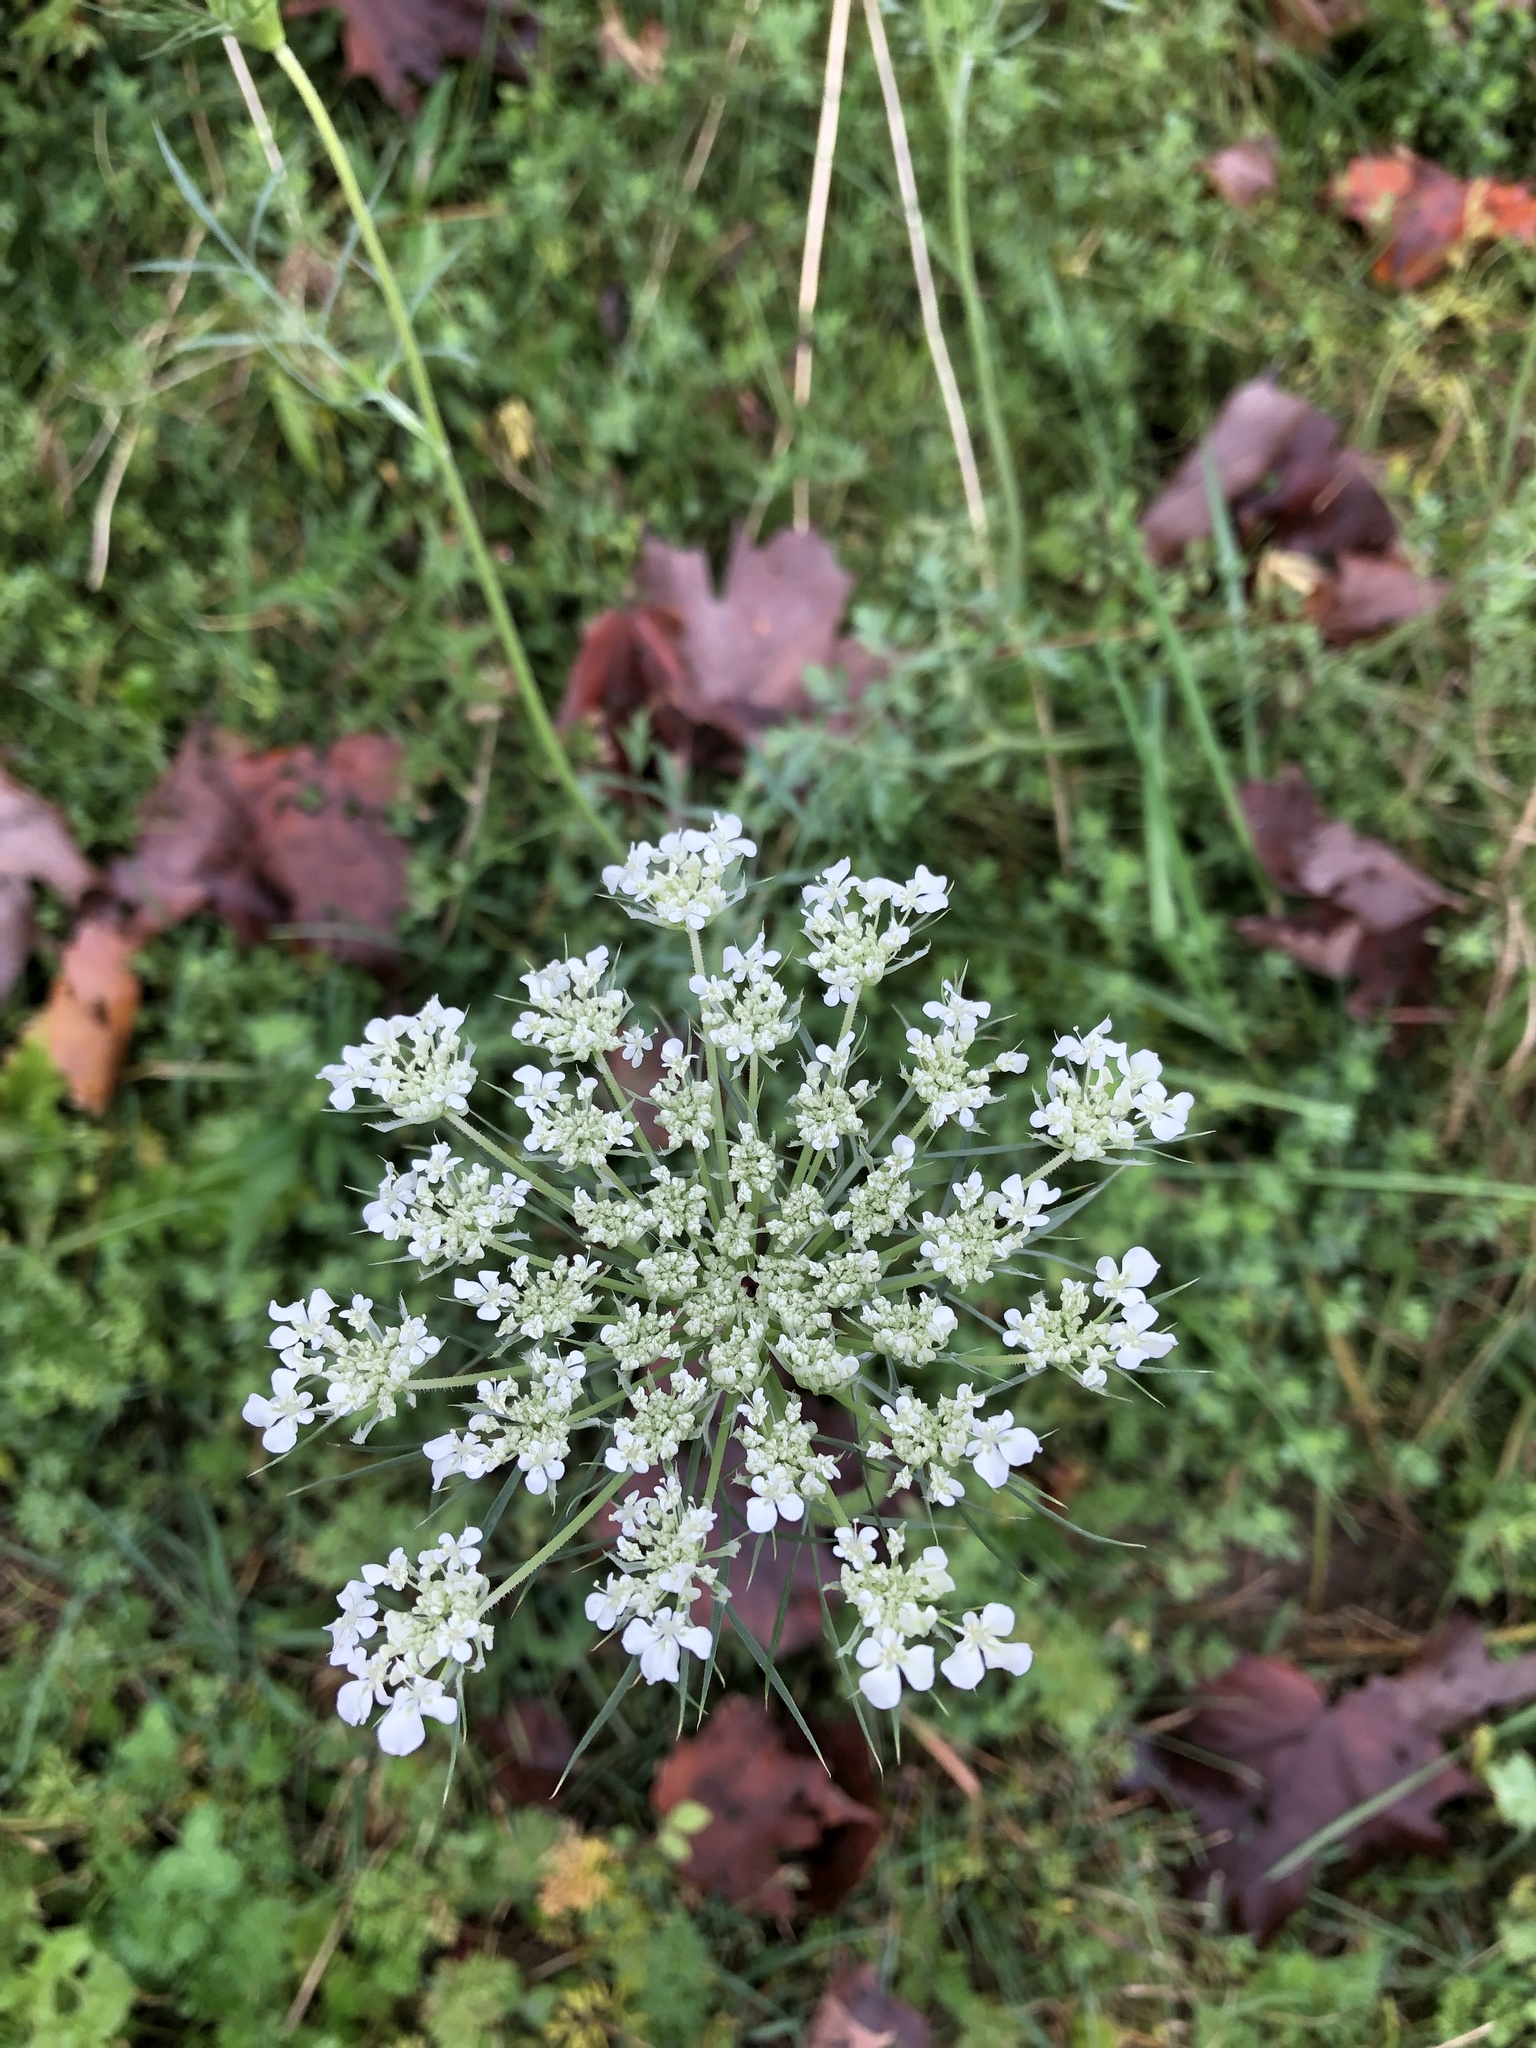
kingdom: Plantae
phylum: Tracheophyta
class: Magnoliopsida
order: Apiales
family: Apiaceae
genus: Daucus
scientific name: Daucus carota
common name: Wild carrot
